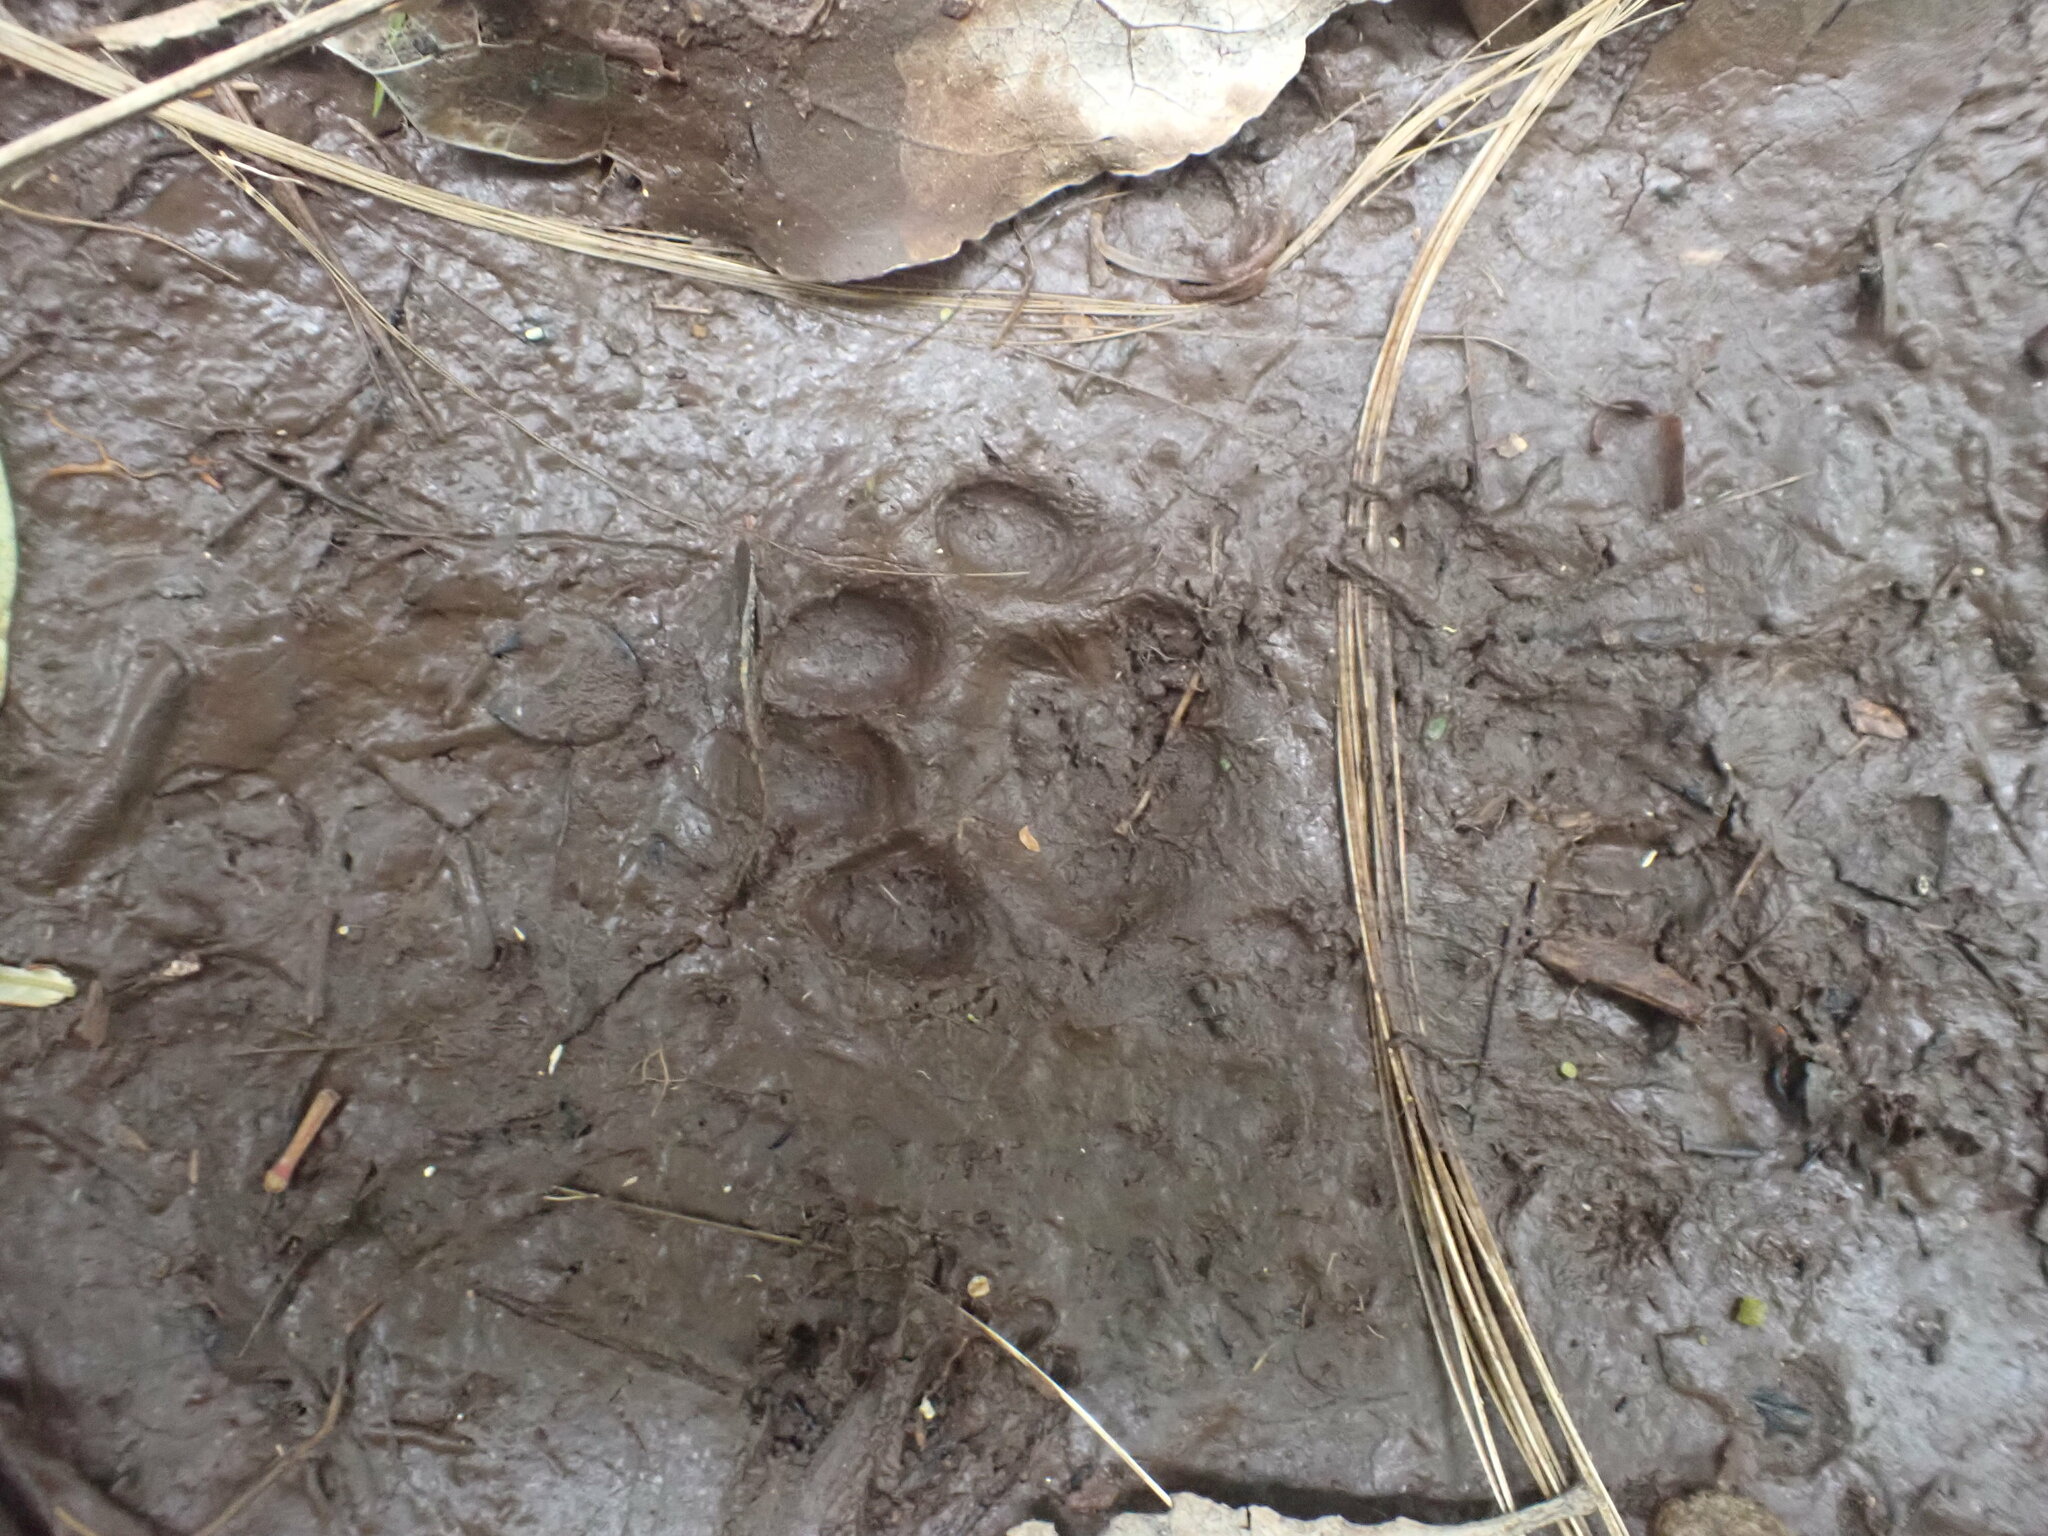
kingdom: Animalia
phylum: Chordata
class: Mammalia
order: Carnivora
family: Felidae
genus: Felis
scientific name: Felis catus
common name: Domestic cat
